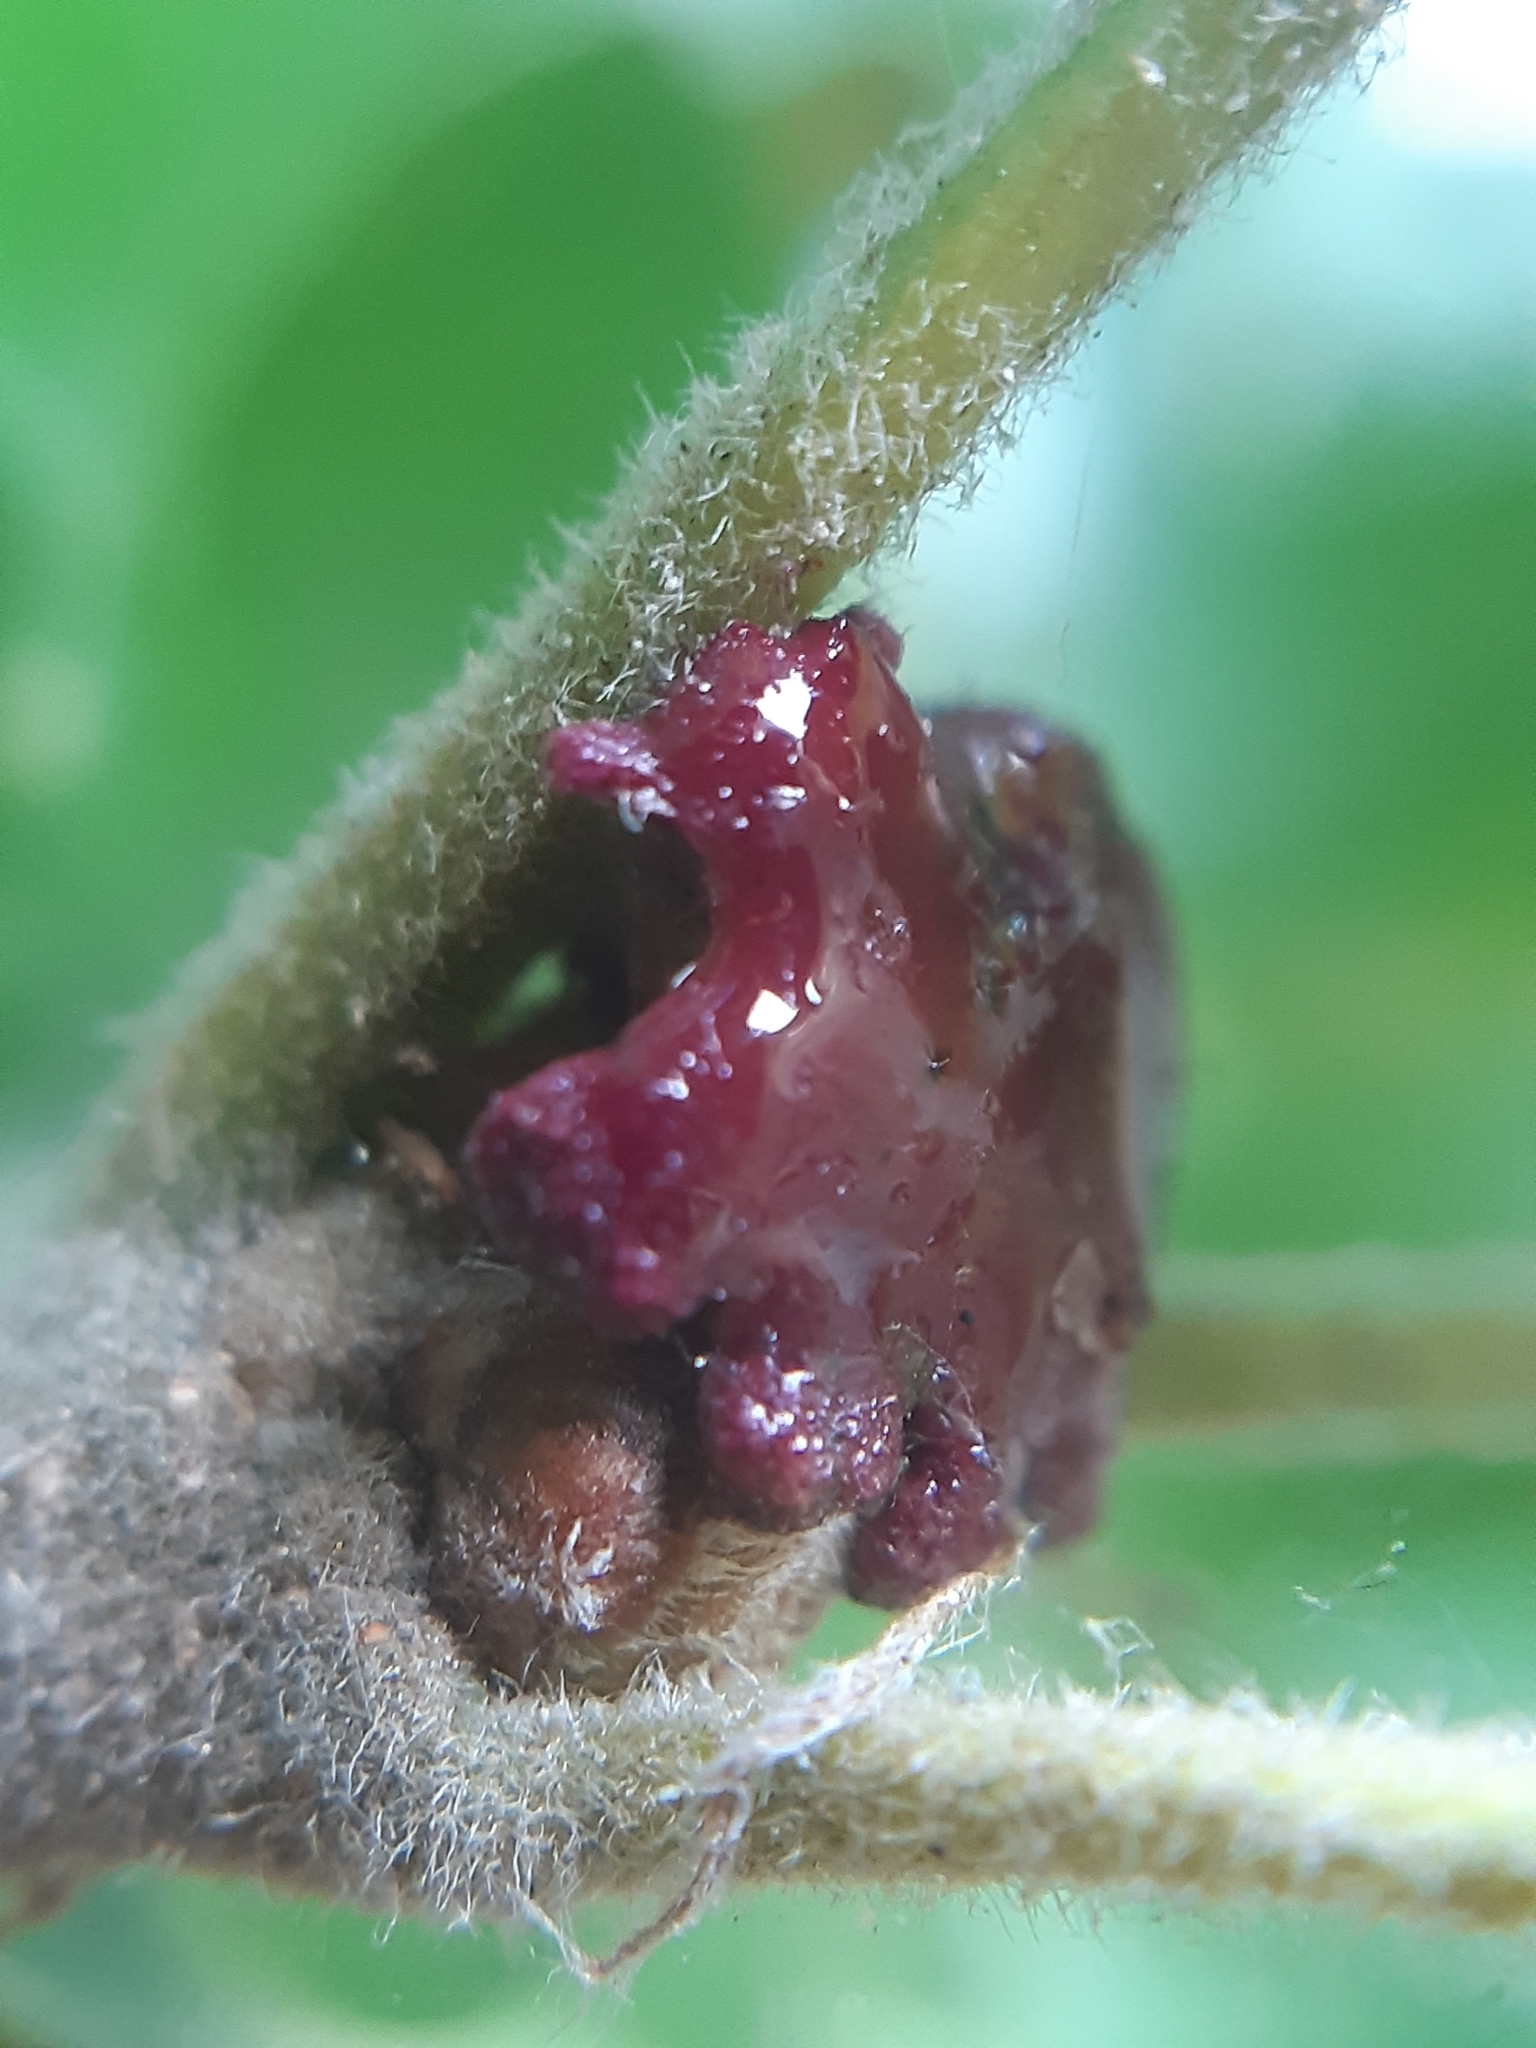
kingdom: Animalia
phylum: Arthropoda
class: Insecta
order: Hymenoptera
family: Cynipidae
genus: Andricus
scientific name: Andricus dentimitratus
